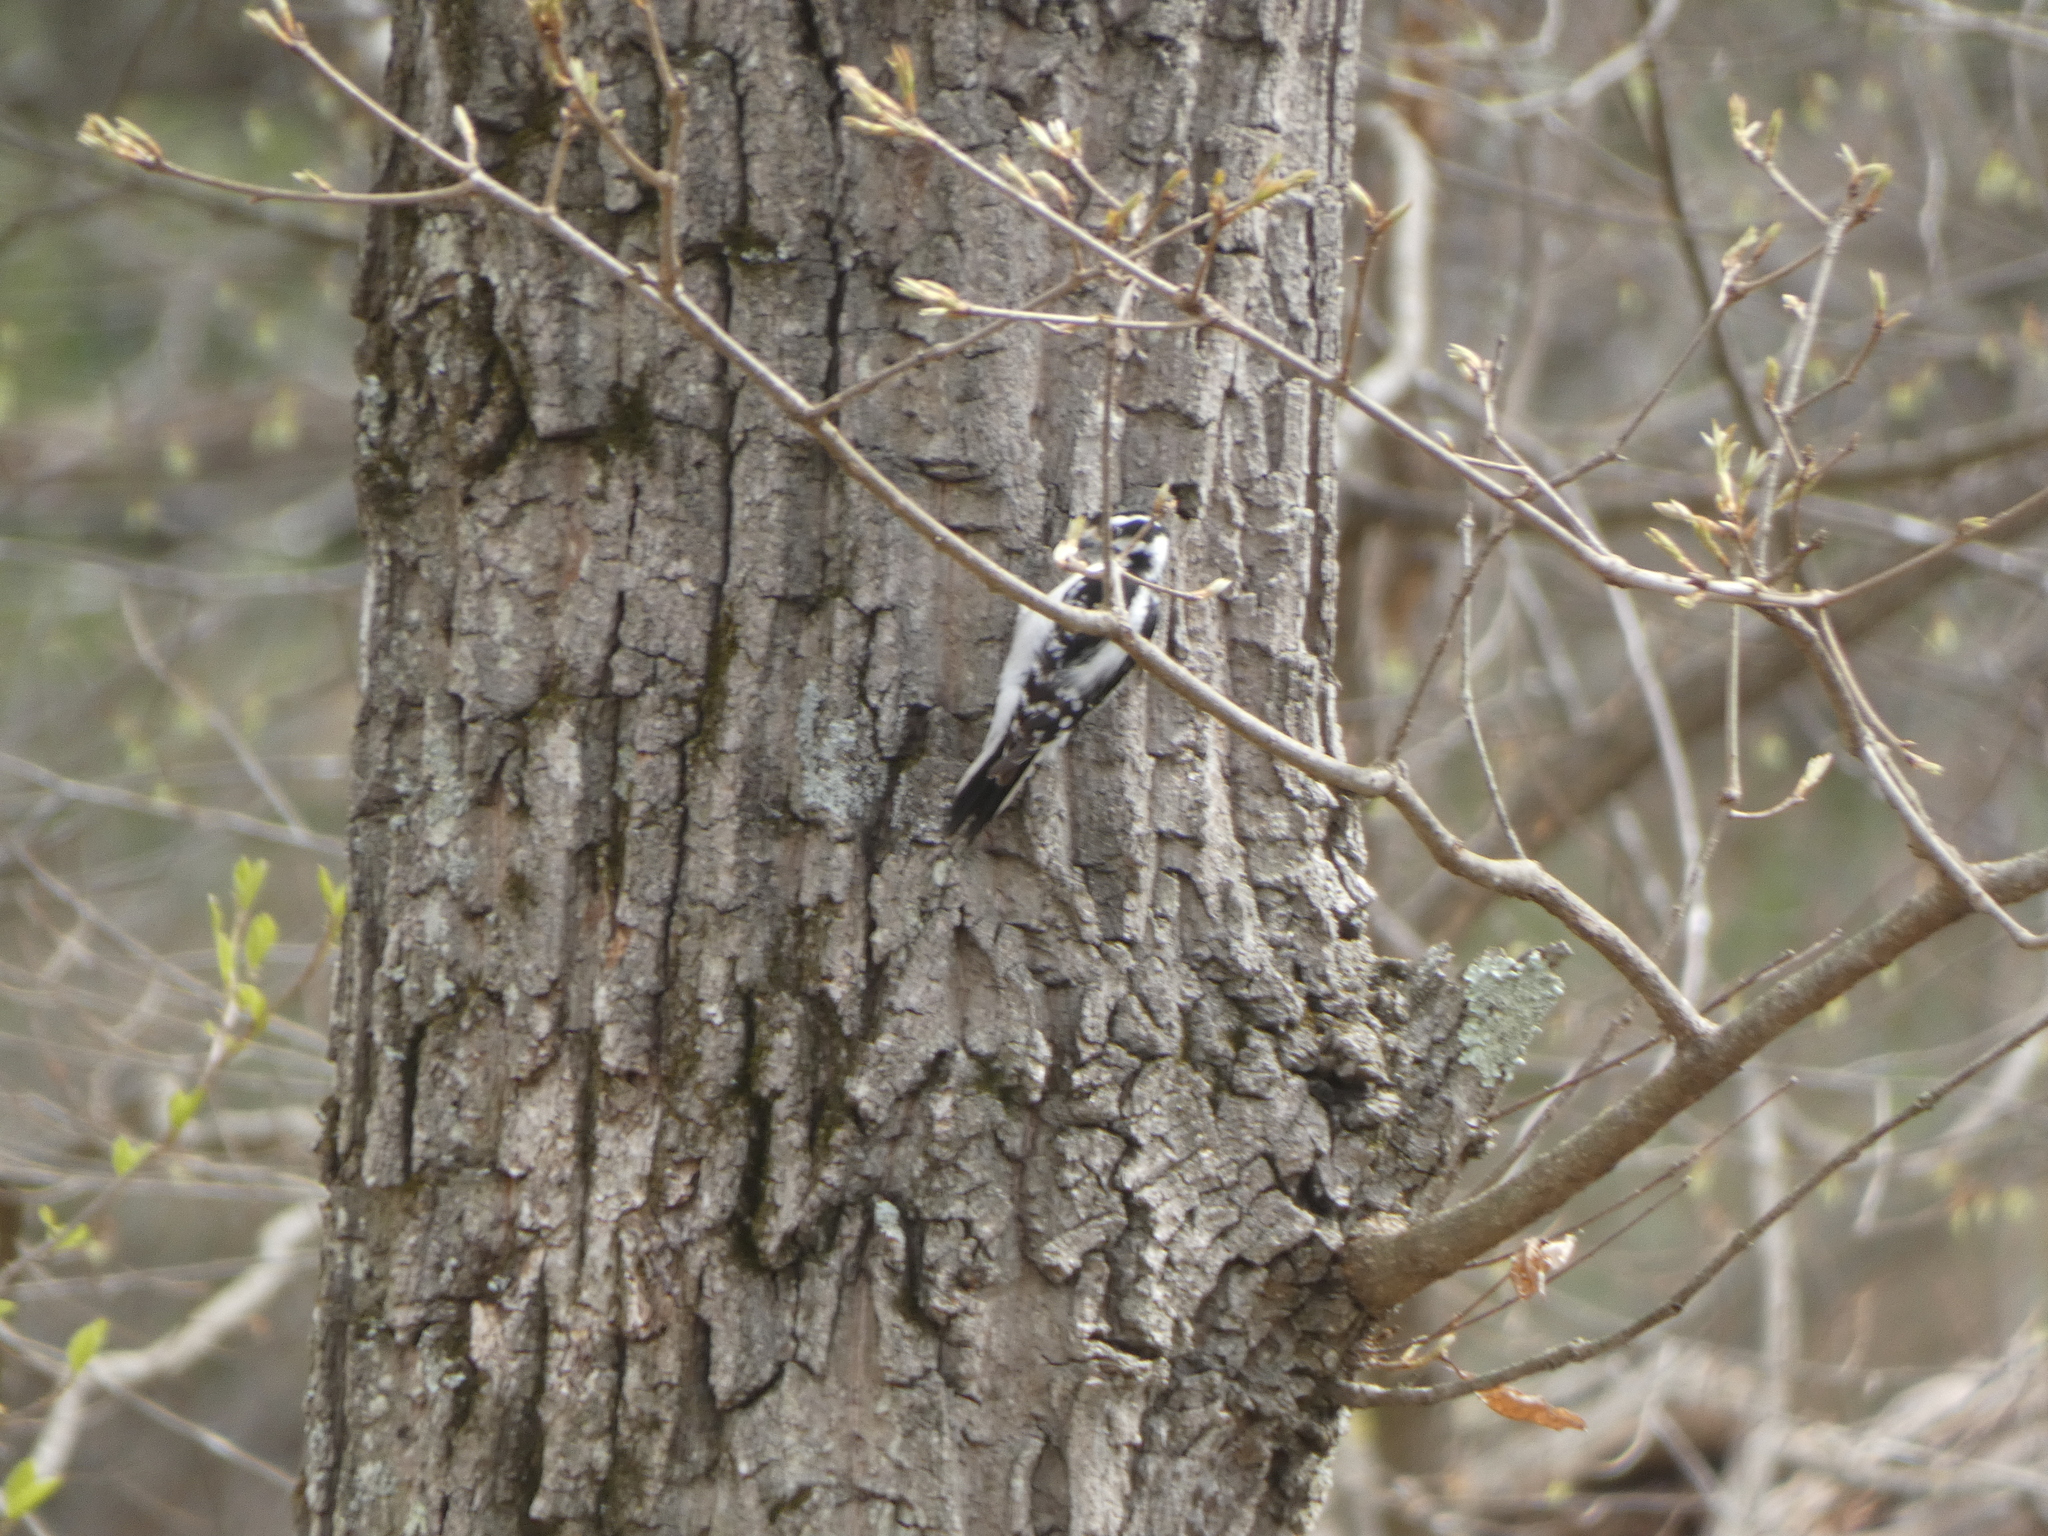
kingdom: Animalia
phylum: Chordata
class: Aves
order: Piciformes
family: Picidae
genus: Dryobates
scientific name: Dryobates pubescens
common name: Downy woodpecker
